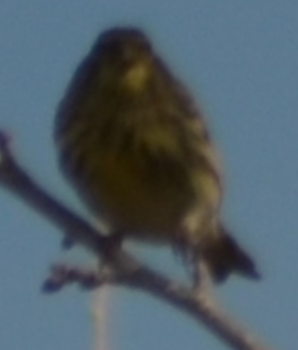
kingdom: Animalia
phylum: Chordata
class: Aves
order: Passeriformes
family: Fringillidae
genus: Serinus
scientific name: Serinus serinus
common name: European serin
